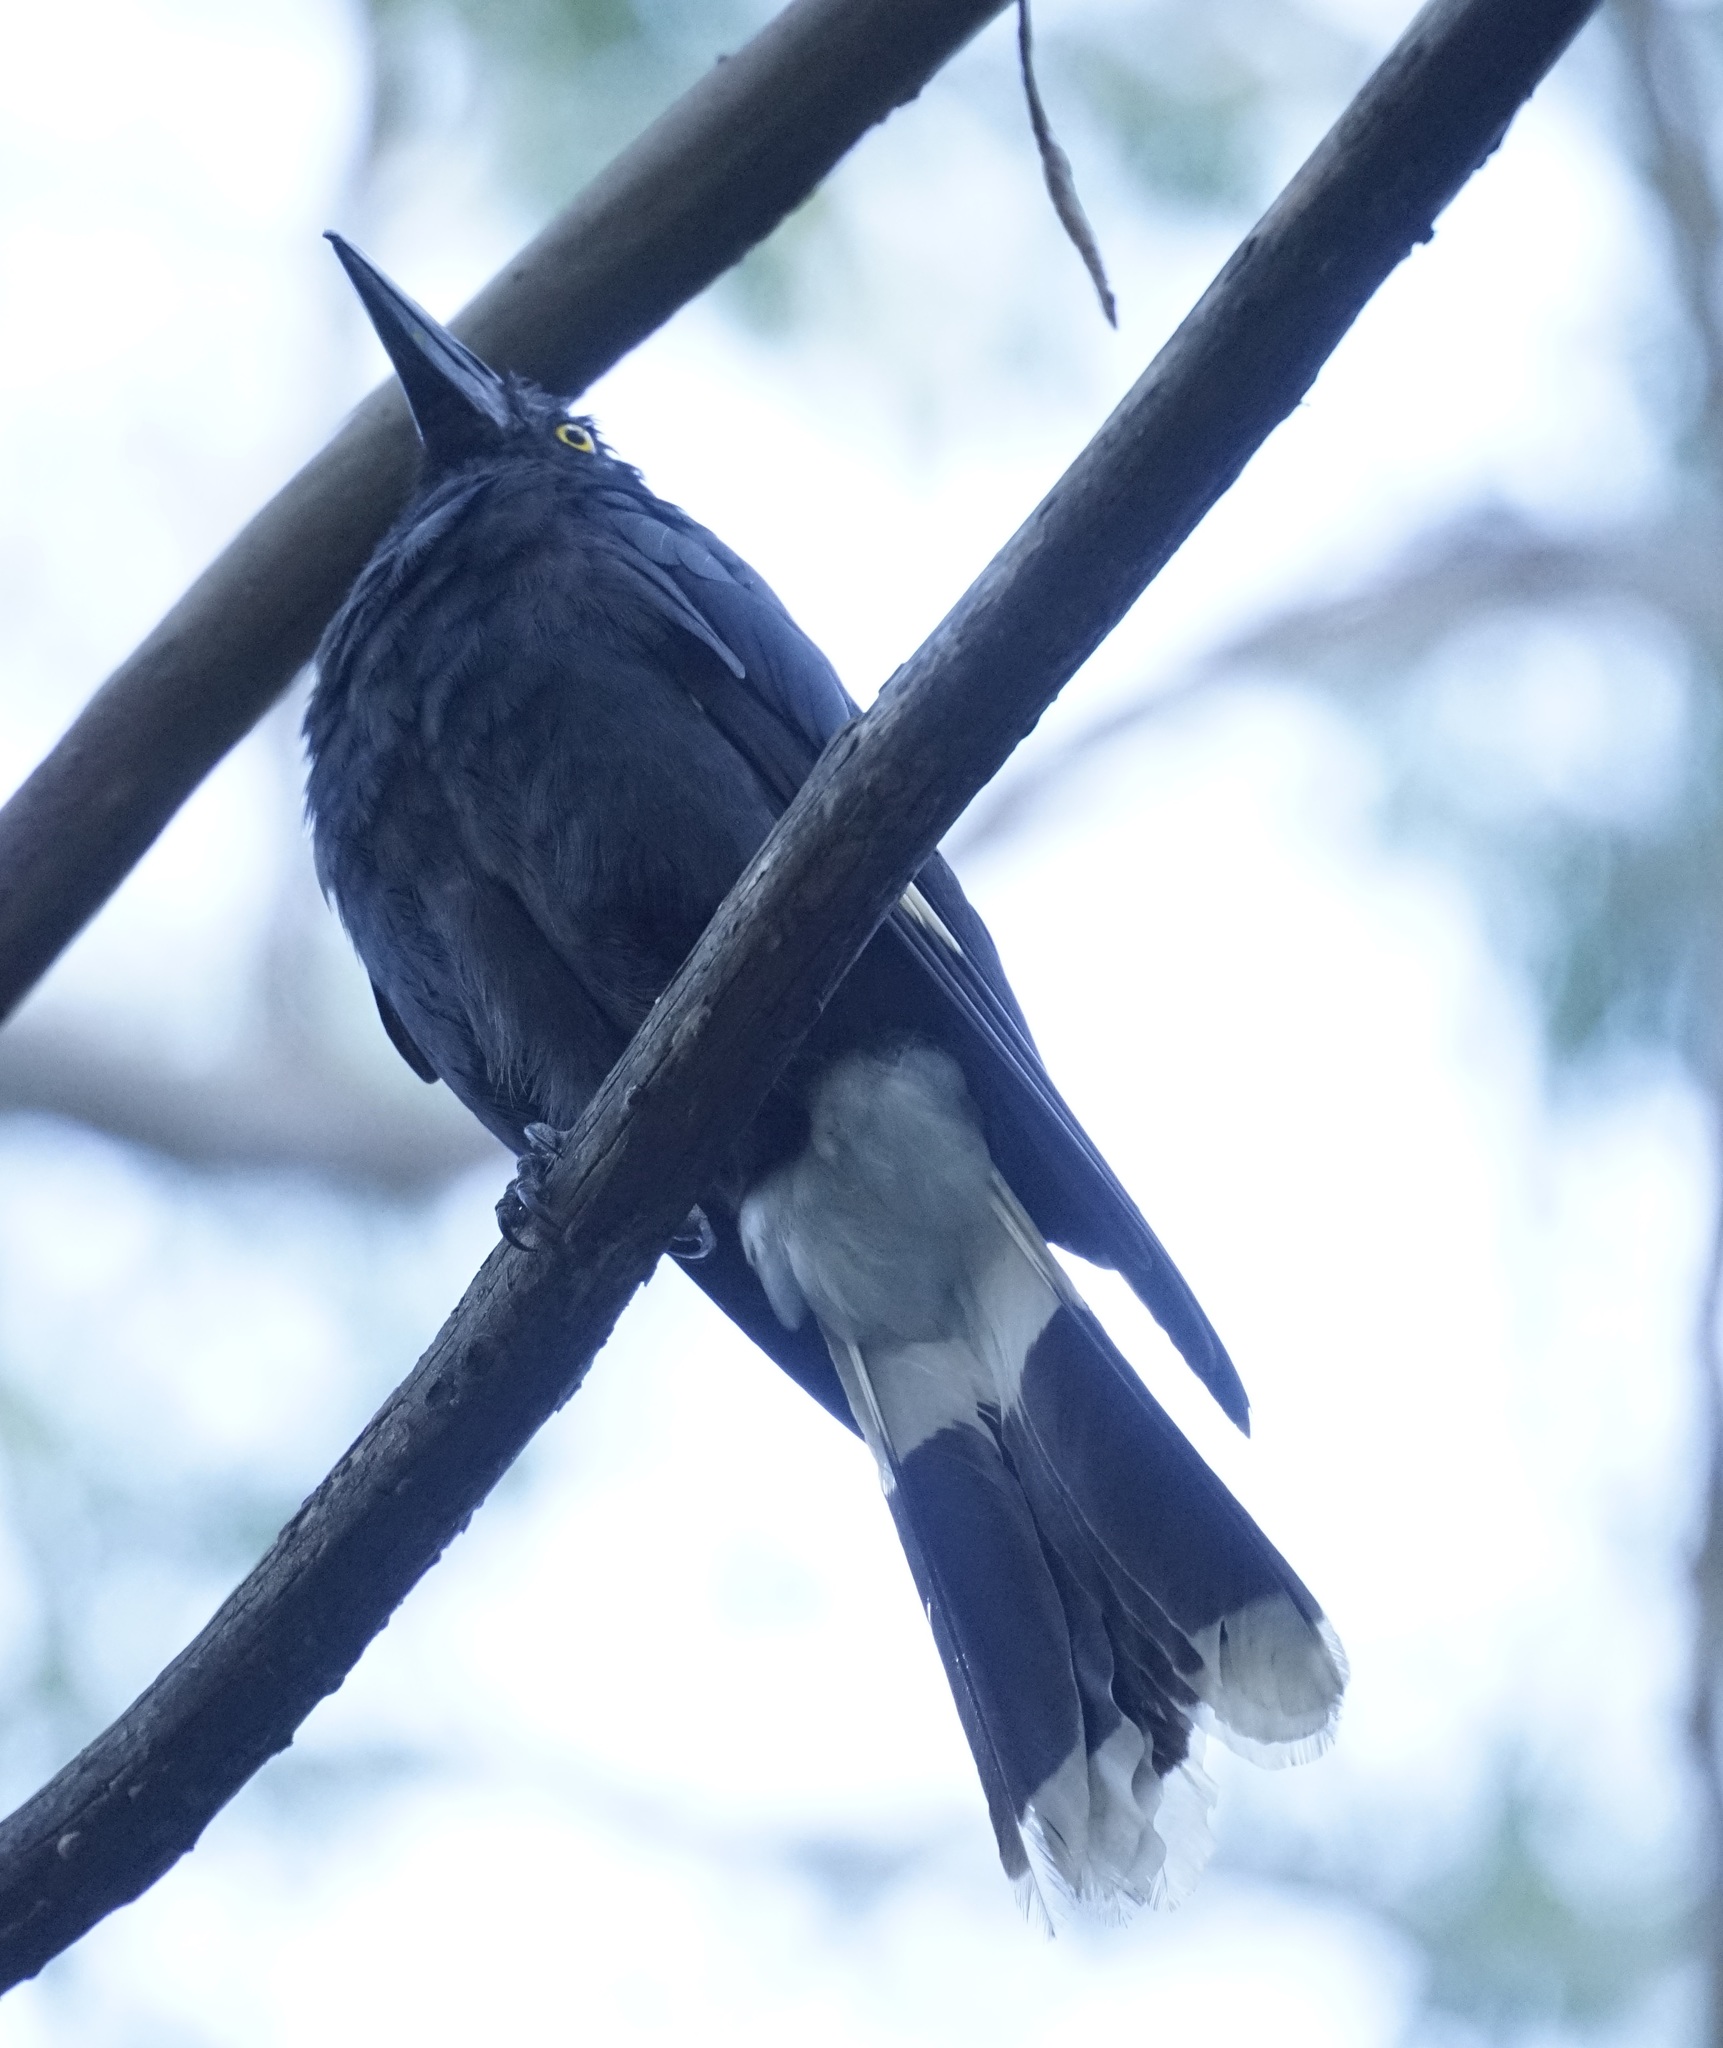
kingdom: Animalia
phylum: Chordata
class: Aves
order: Passeriformes
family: Cracticidae
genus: Strepera
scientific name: Strepera graculina
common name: Pied currawong
